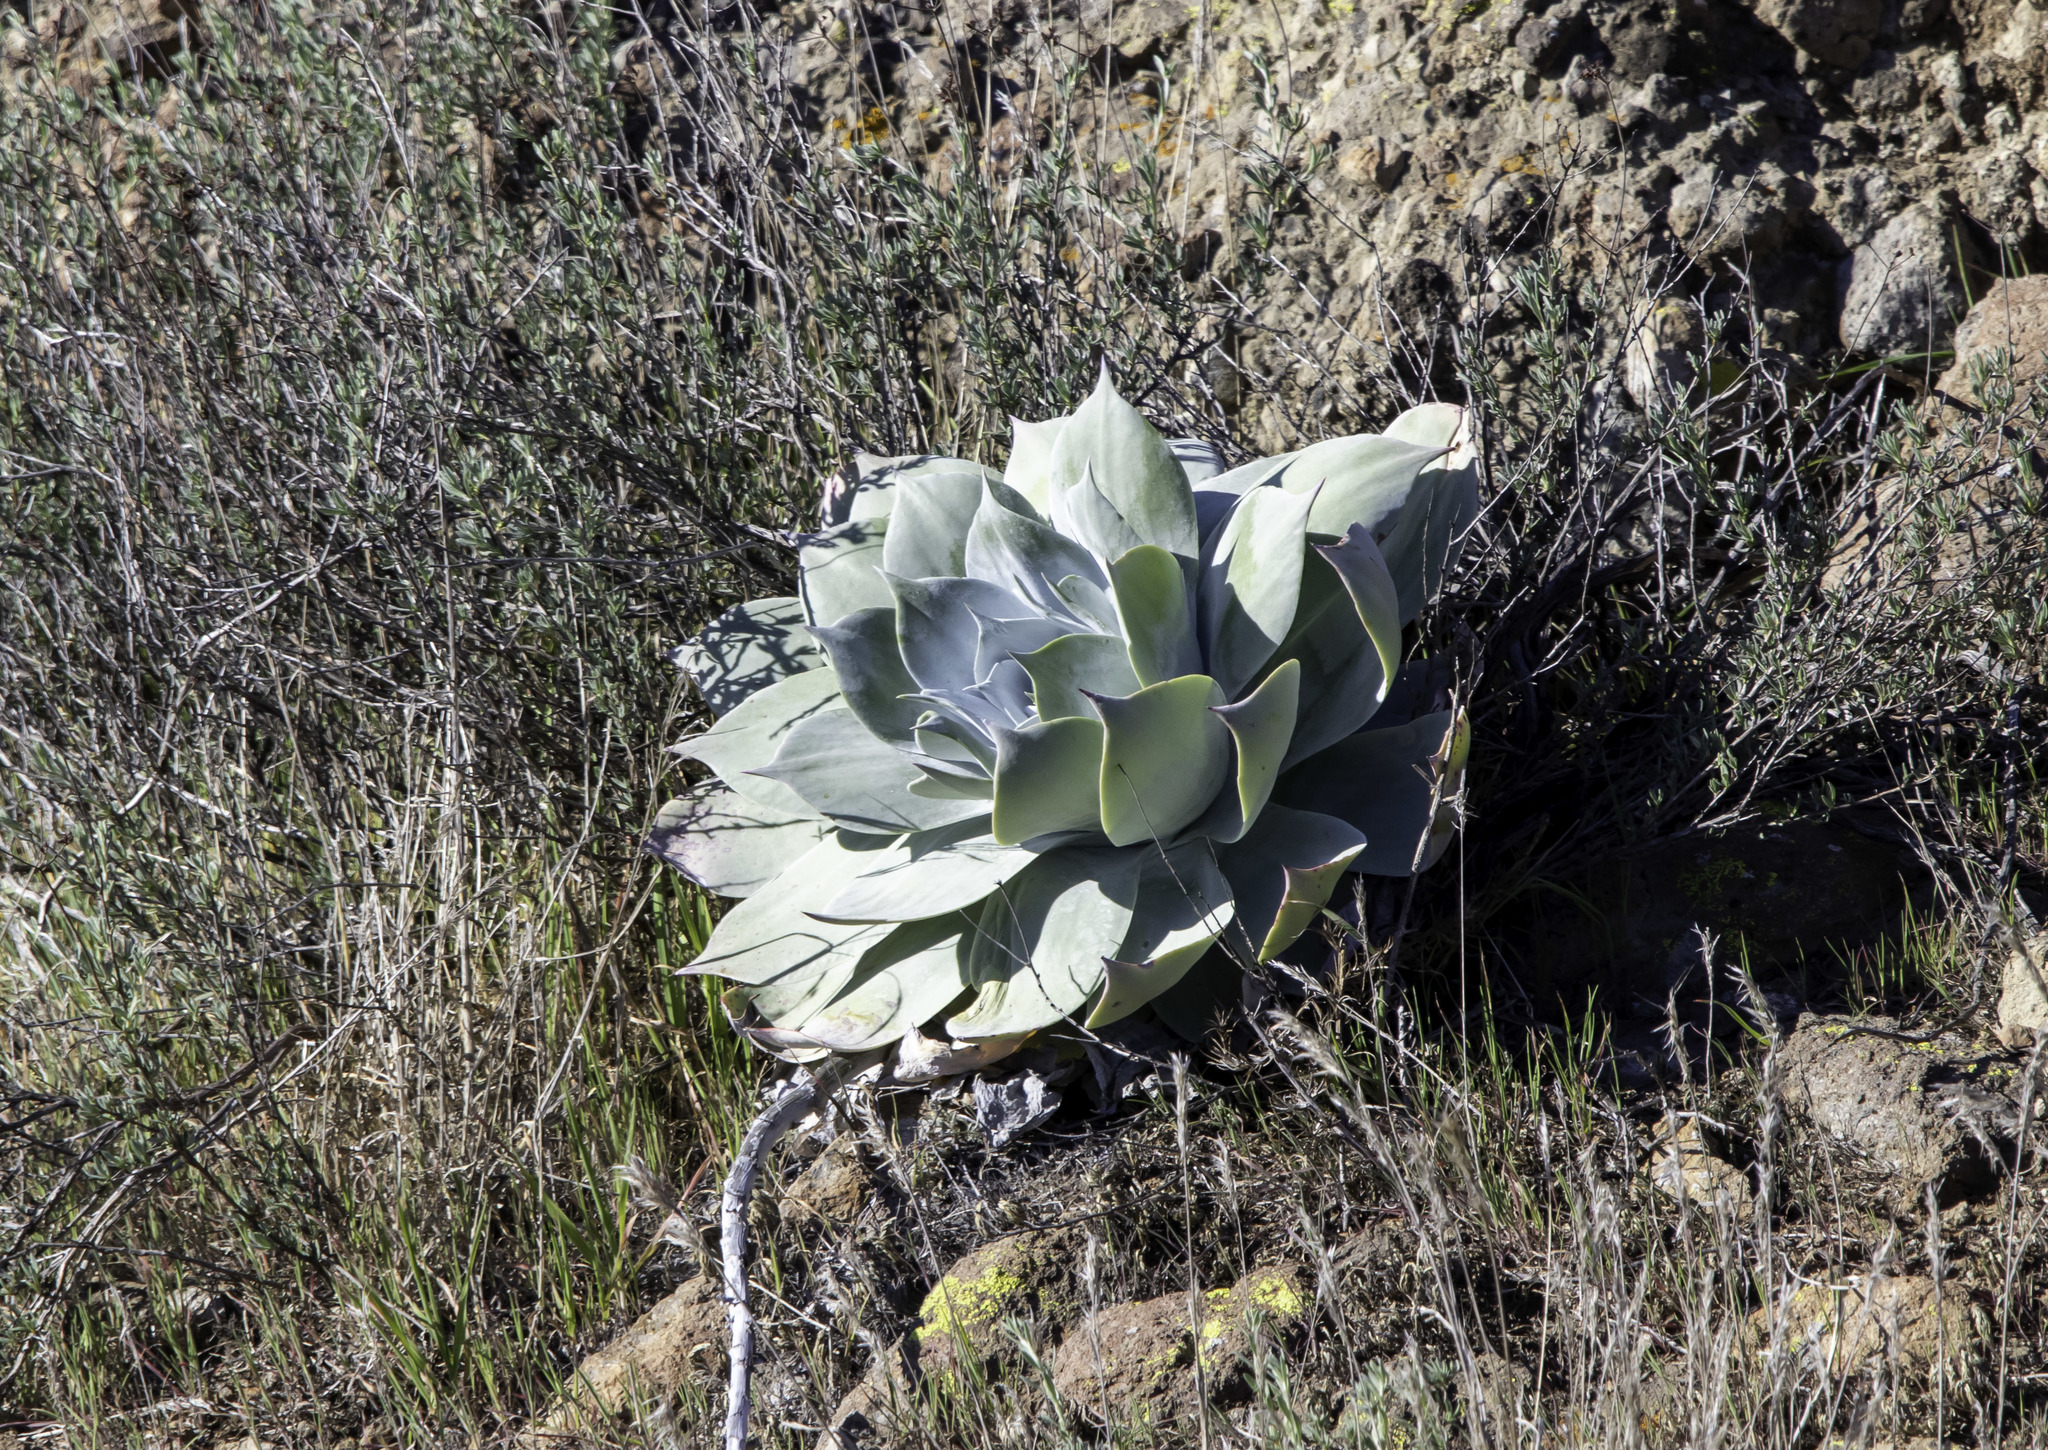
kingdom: Plantae
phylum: Tracheophyta
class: Magnoliopsida
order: Saxifragales
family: Crassulaceae
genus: Dudleya
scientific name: Dudleya pulverulenta
